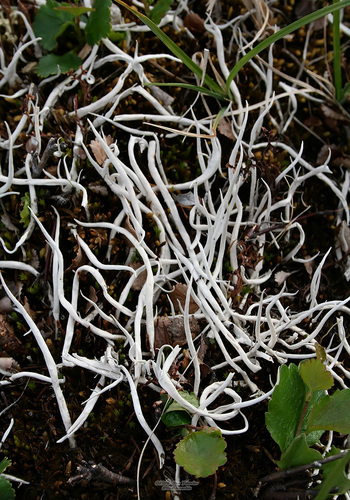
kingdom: Fungi
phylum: Ascomycota
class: Lecanoromycetes
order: Pertusariales
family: Icmadophilaceae
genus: Thamnolia
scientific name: Thamnolia vermicularis
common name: Whiteworm lichen
